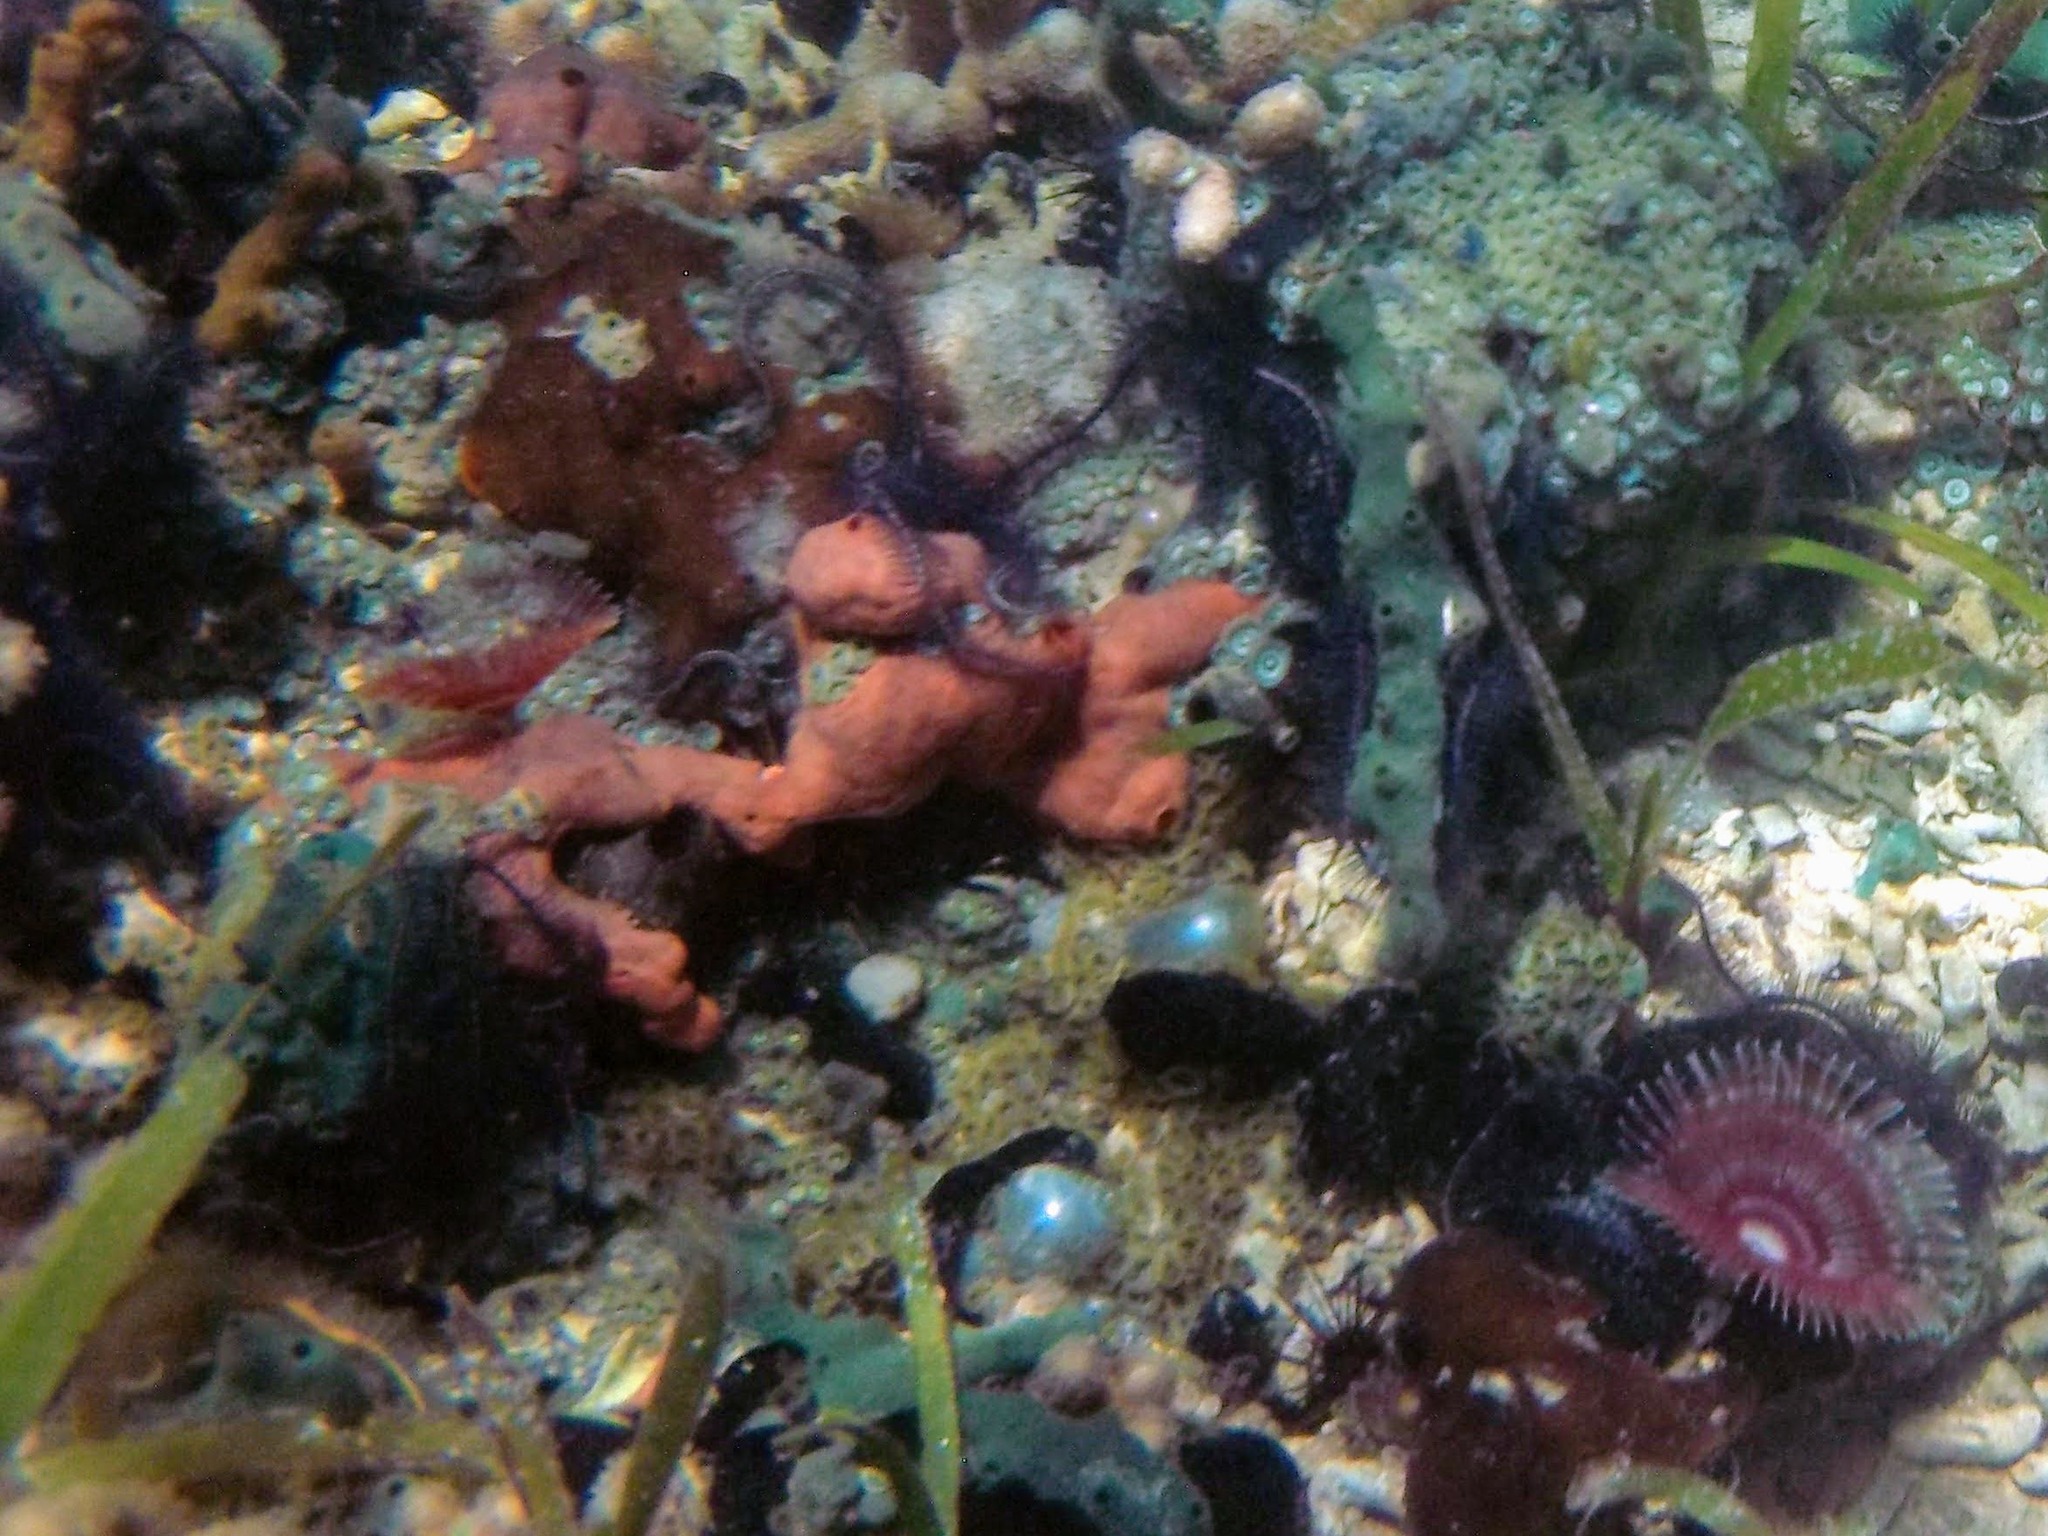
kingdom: Animalia
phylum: Porifera
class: Demospongiae
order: Poecilosclerida
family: Desmacididae
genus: Desmapsamma
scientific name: Desmapsamma anchorata
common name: Lumpy overgrowing sponge
